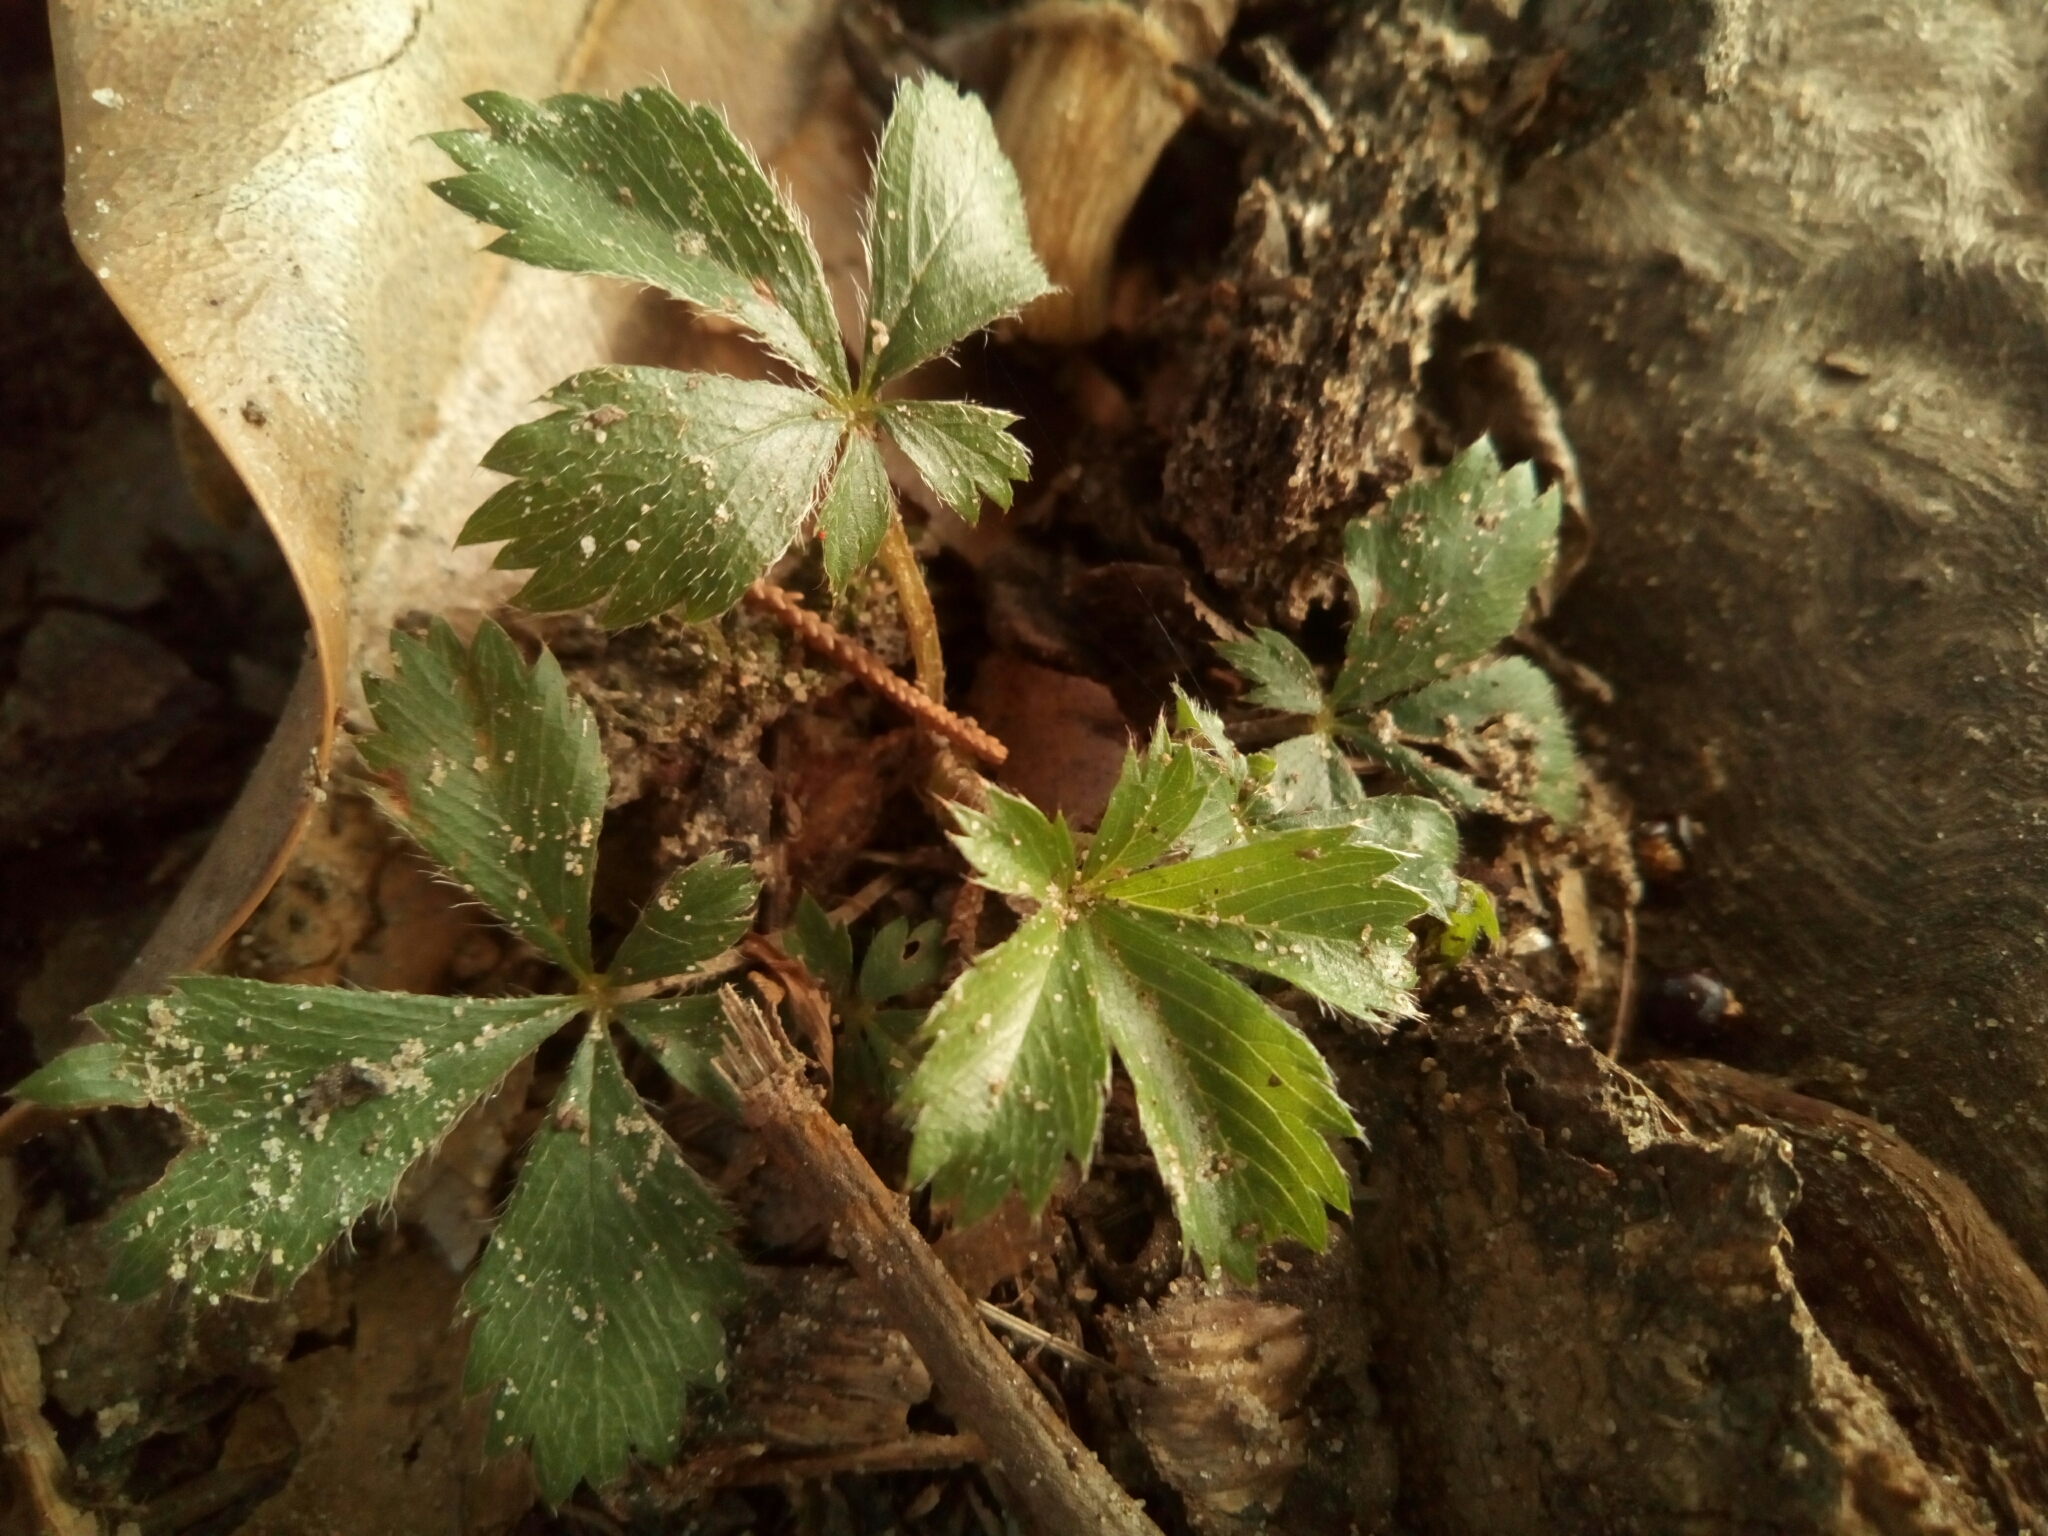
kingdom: Plantae
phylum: Tracheophyta
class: Magnoliopsida
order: Rosales
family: Rosaceae
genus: Potentilla
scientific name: Potentilla canadensis
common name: Canada cinquefoil
